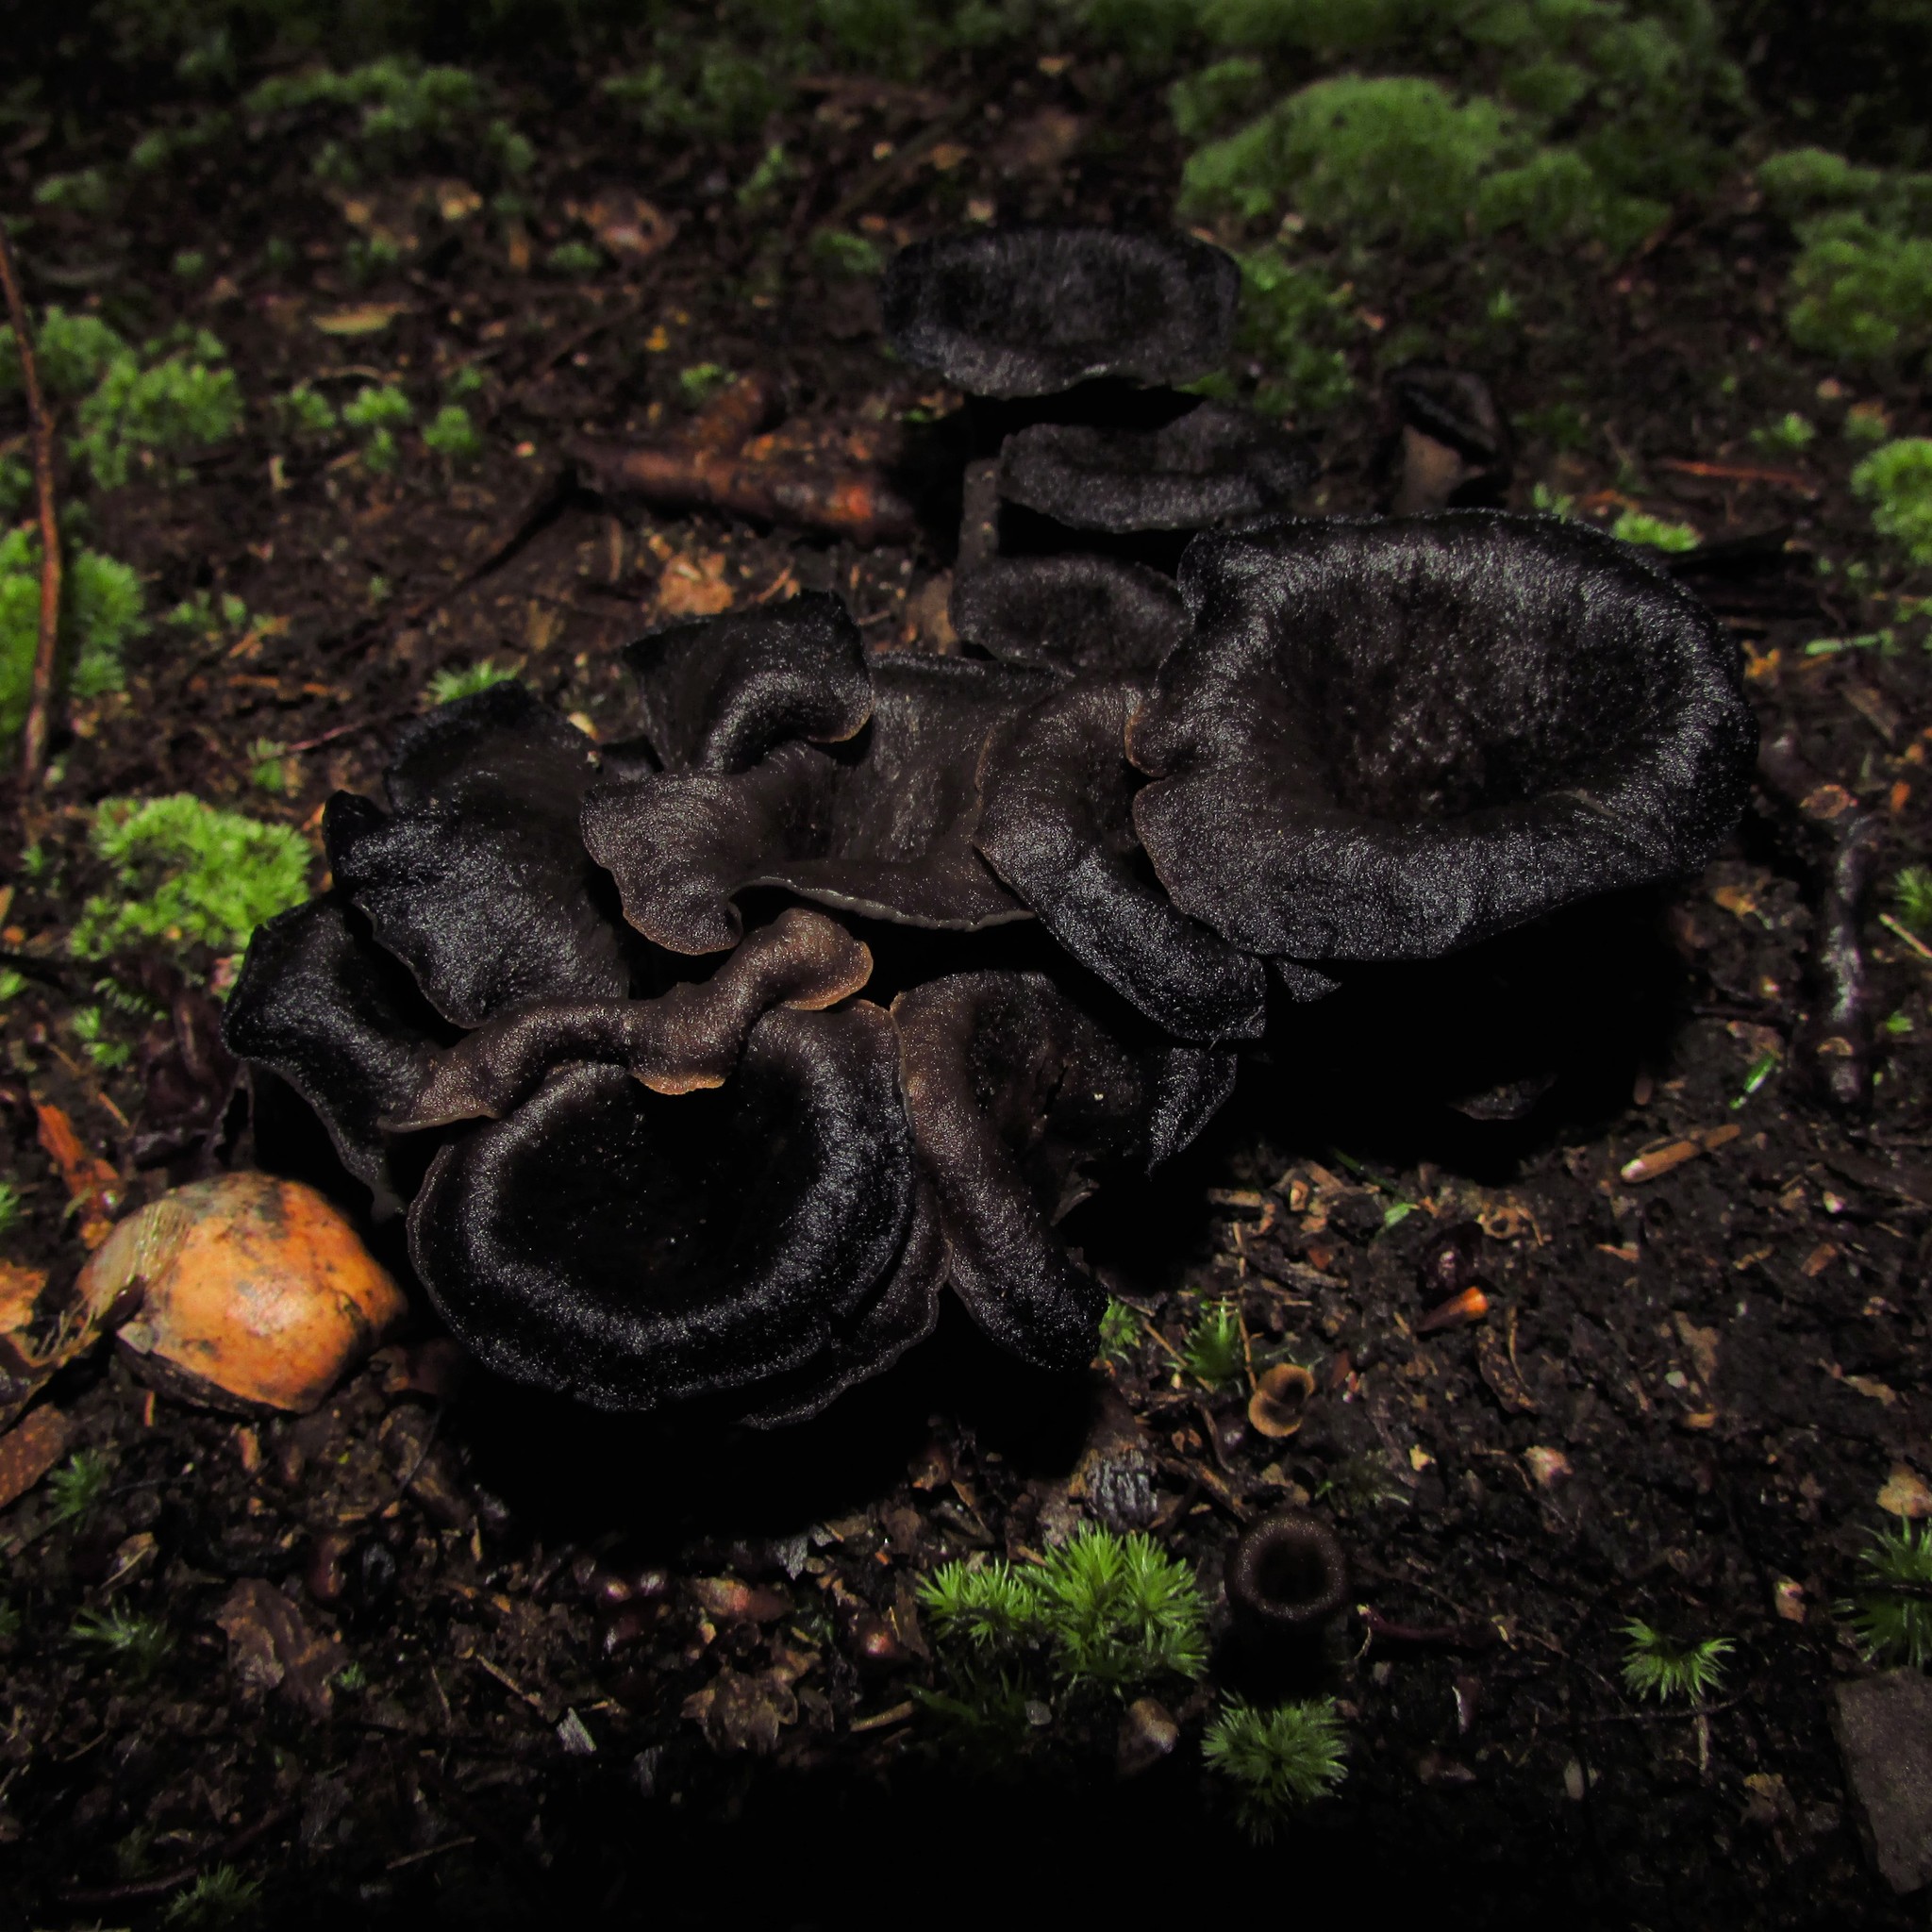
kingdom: Fungi
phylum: Basidiomycota
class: Agaricomycetes
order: Cantharellales
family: Hydnaceae
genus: Craterellus
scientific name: Craterellus cornucopioides
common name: Horn of plenty
